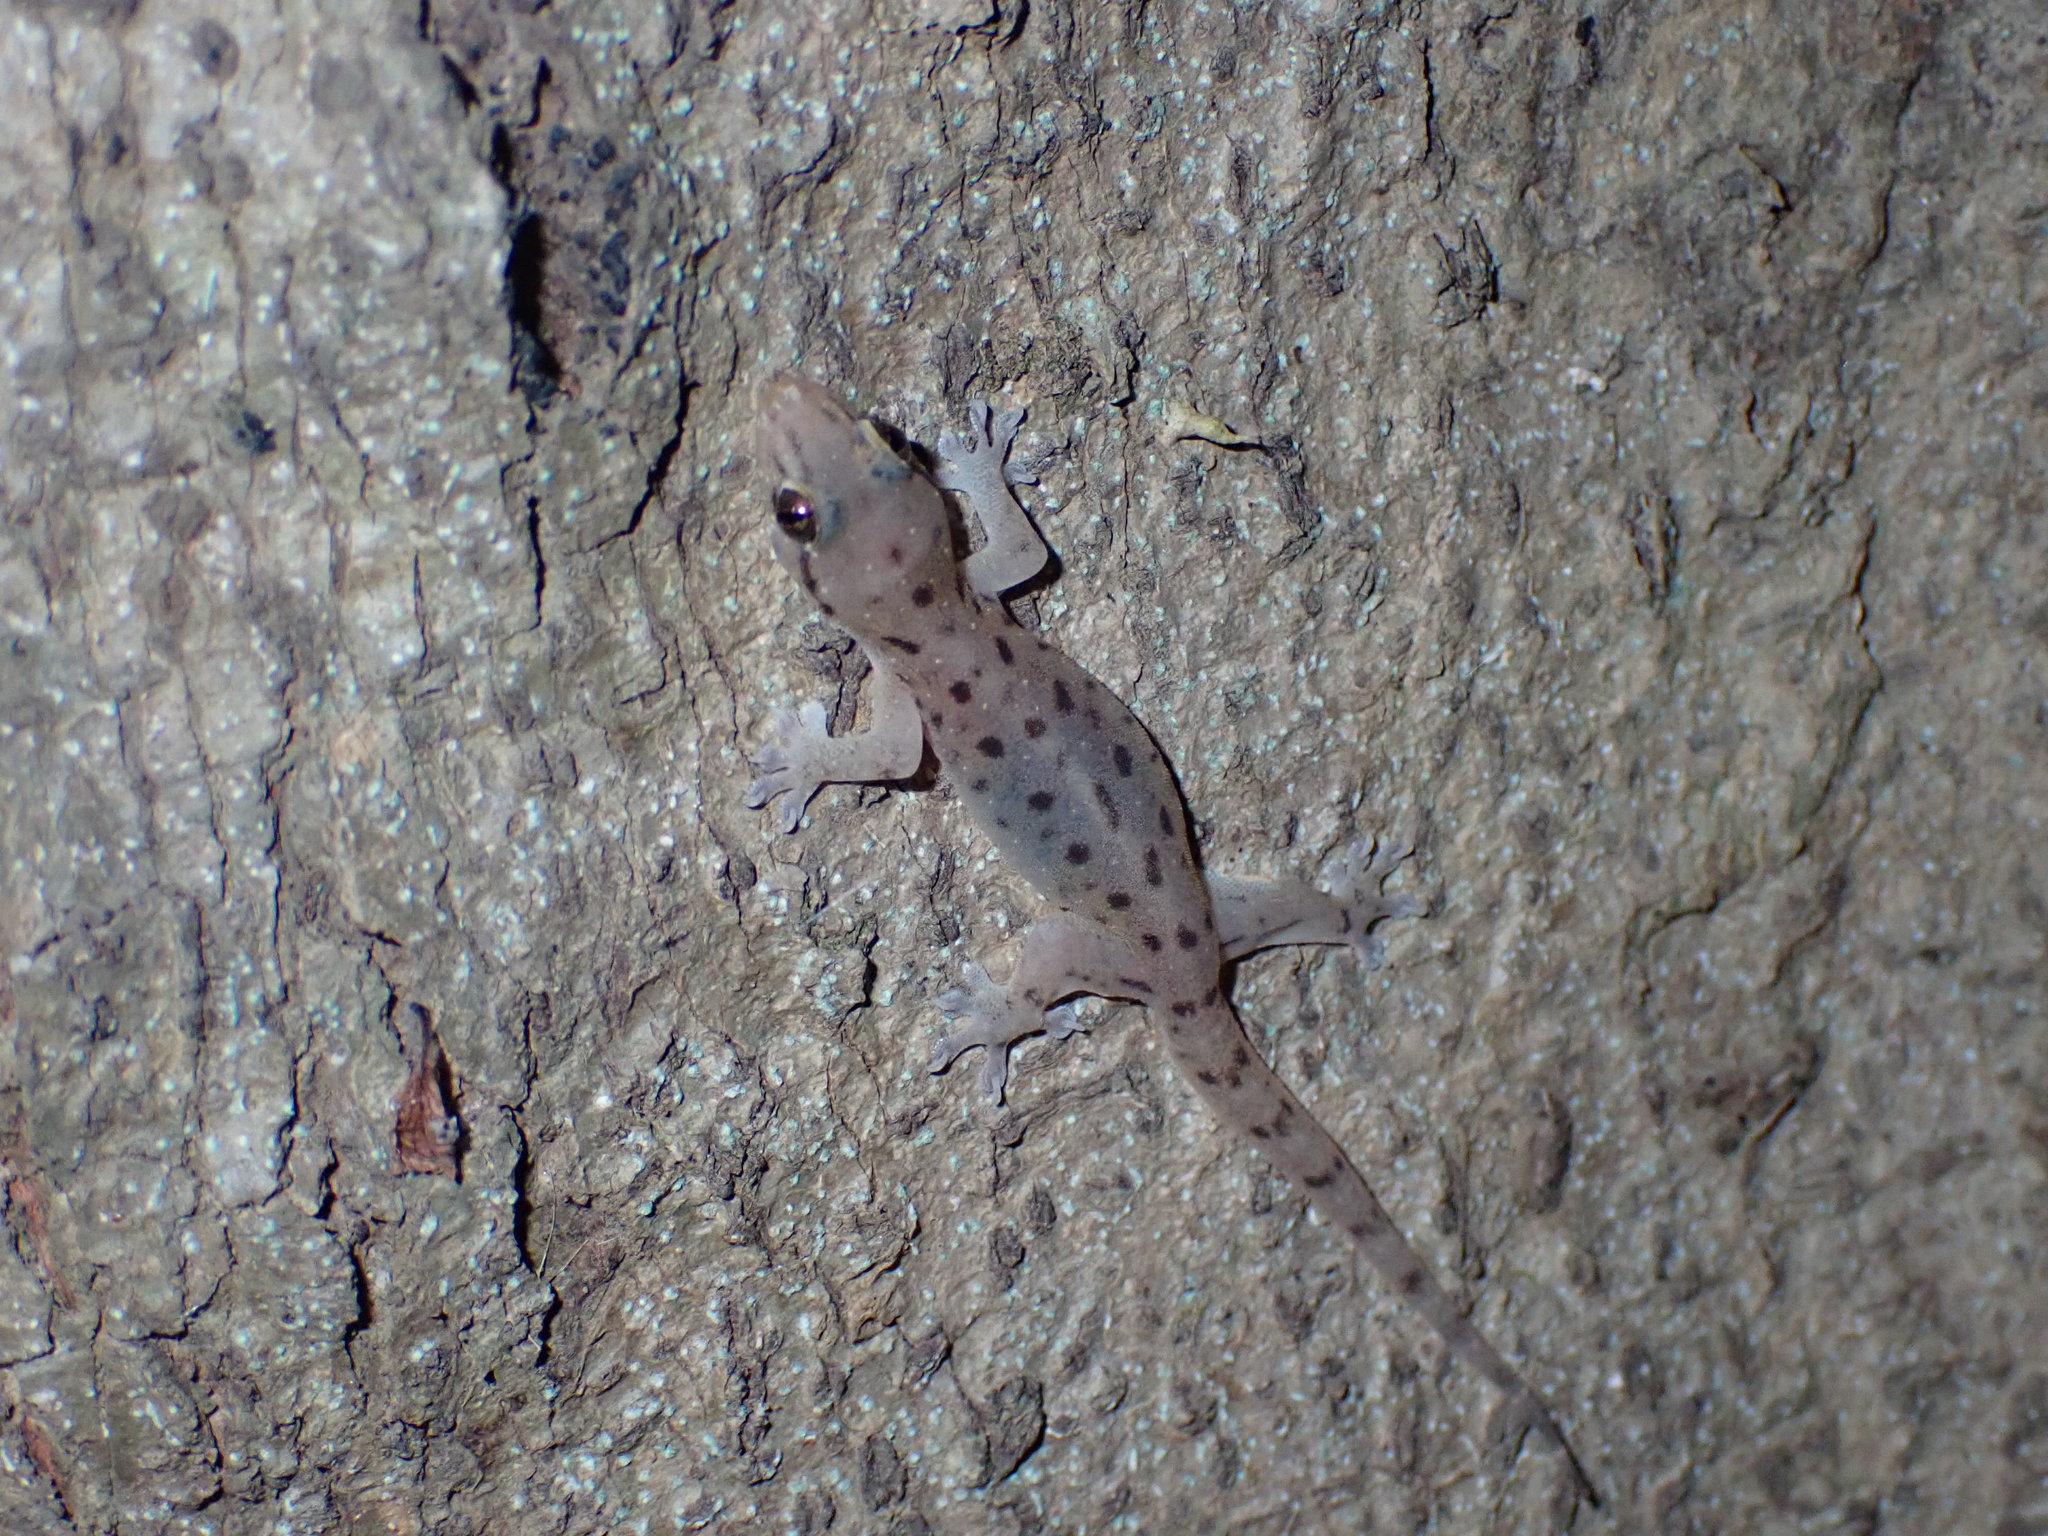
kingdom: Animalia
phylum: Chordata
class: Squamata
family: Gekkonidae
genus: Gehyra
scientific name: Gehyra mutilata
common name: Stump-toed gecko
